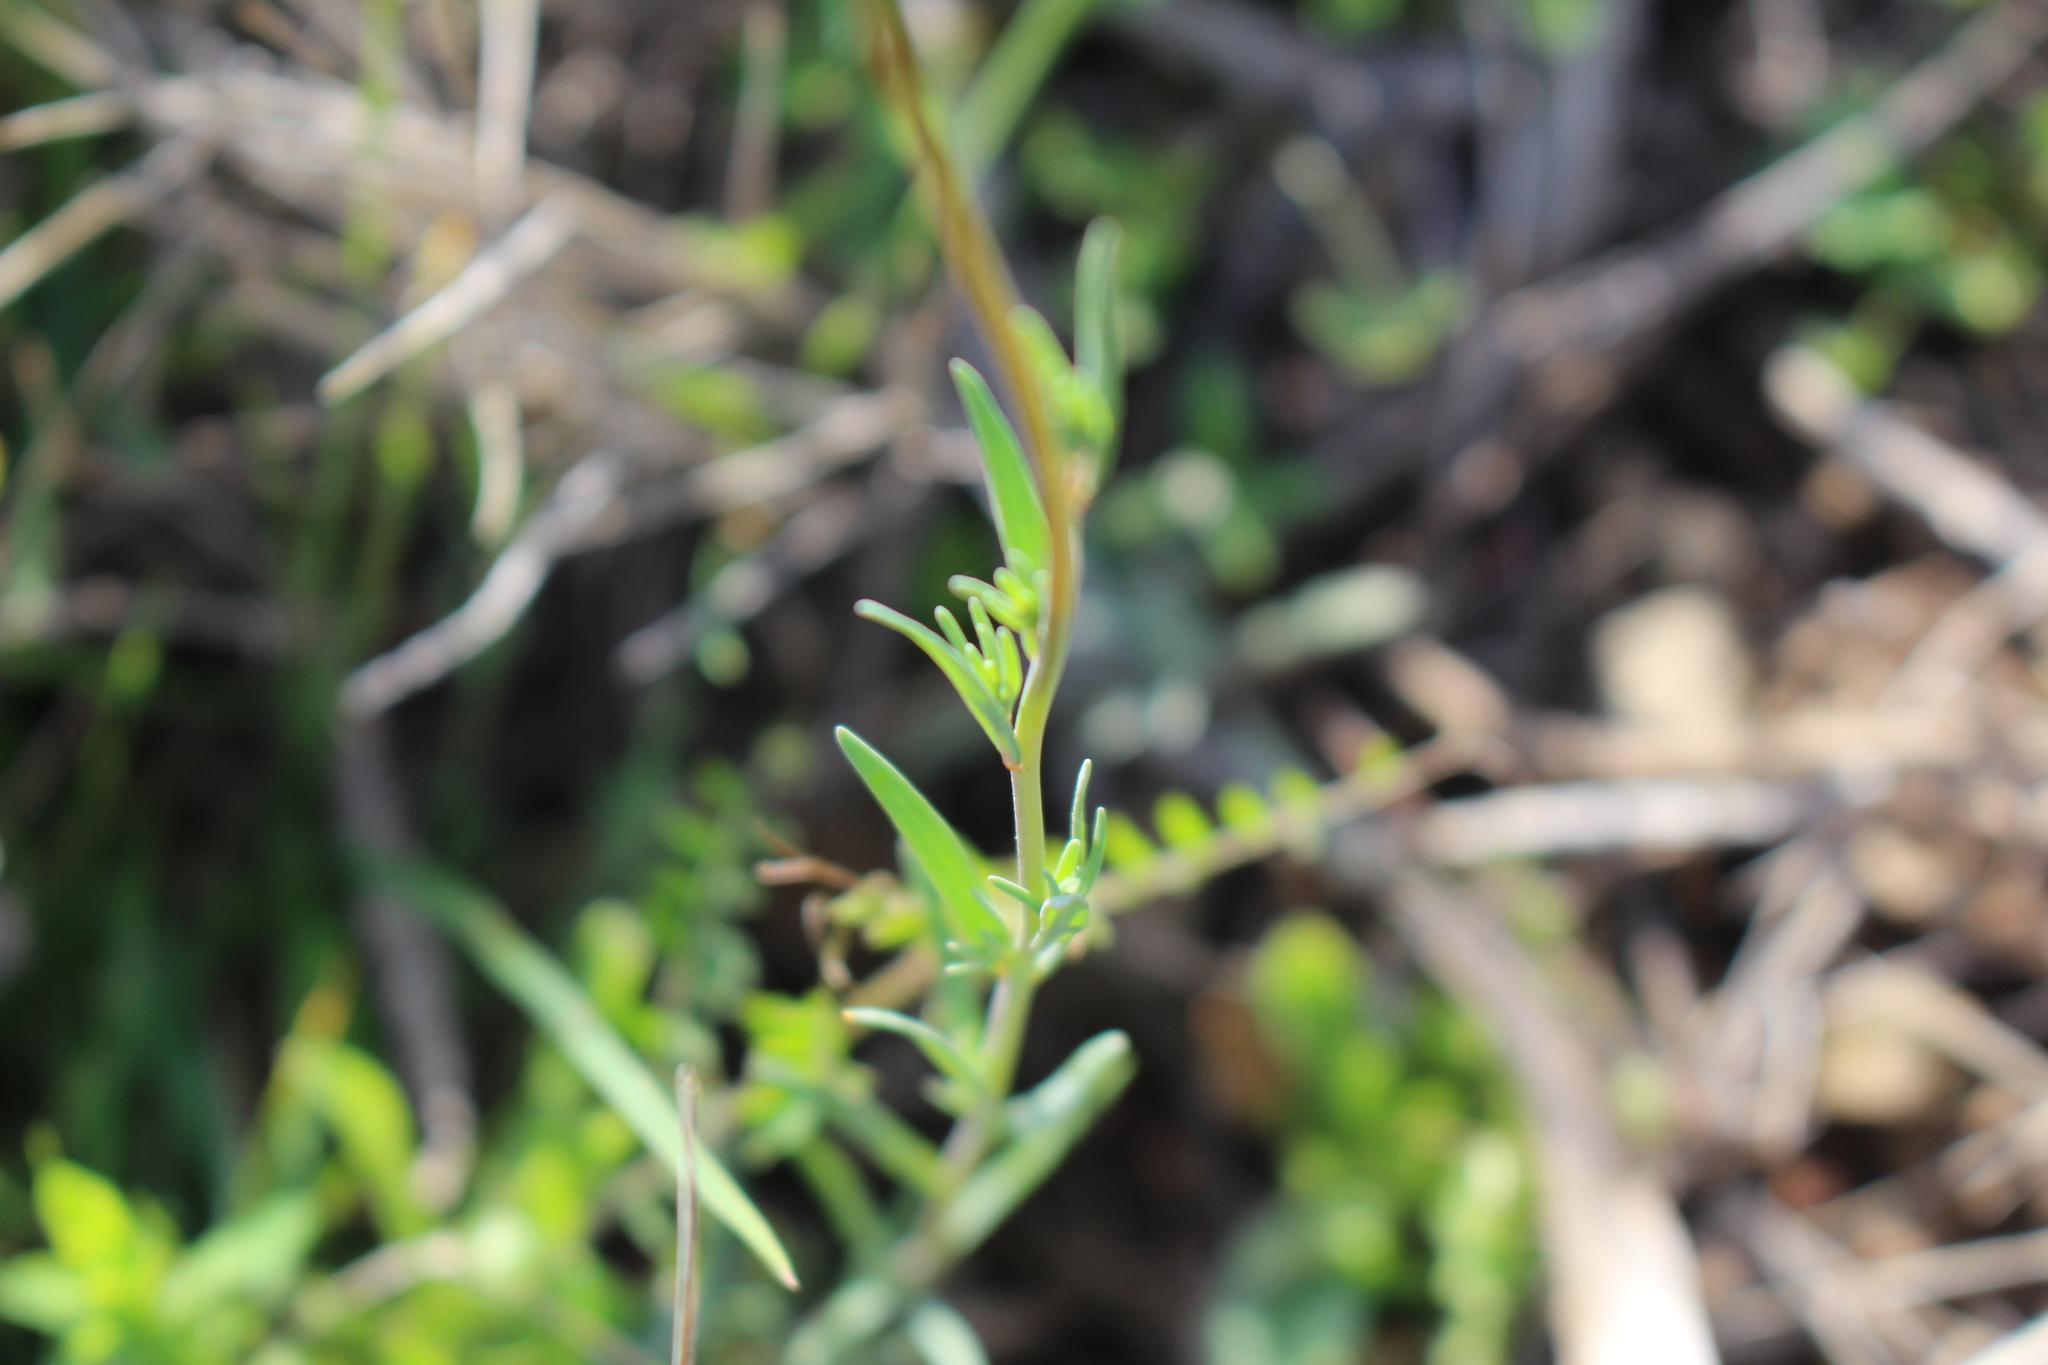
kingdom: Plantae
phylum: Tracheophyta
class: Magnoliopsida
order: Lamiales
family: Plantaginaceae
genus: Linaria
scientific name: Linaria arvensis
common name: Corn toadflax
